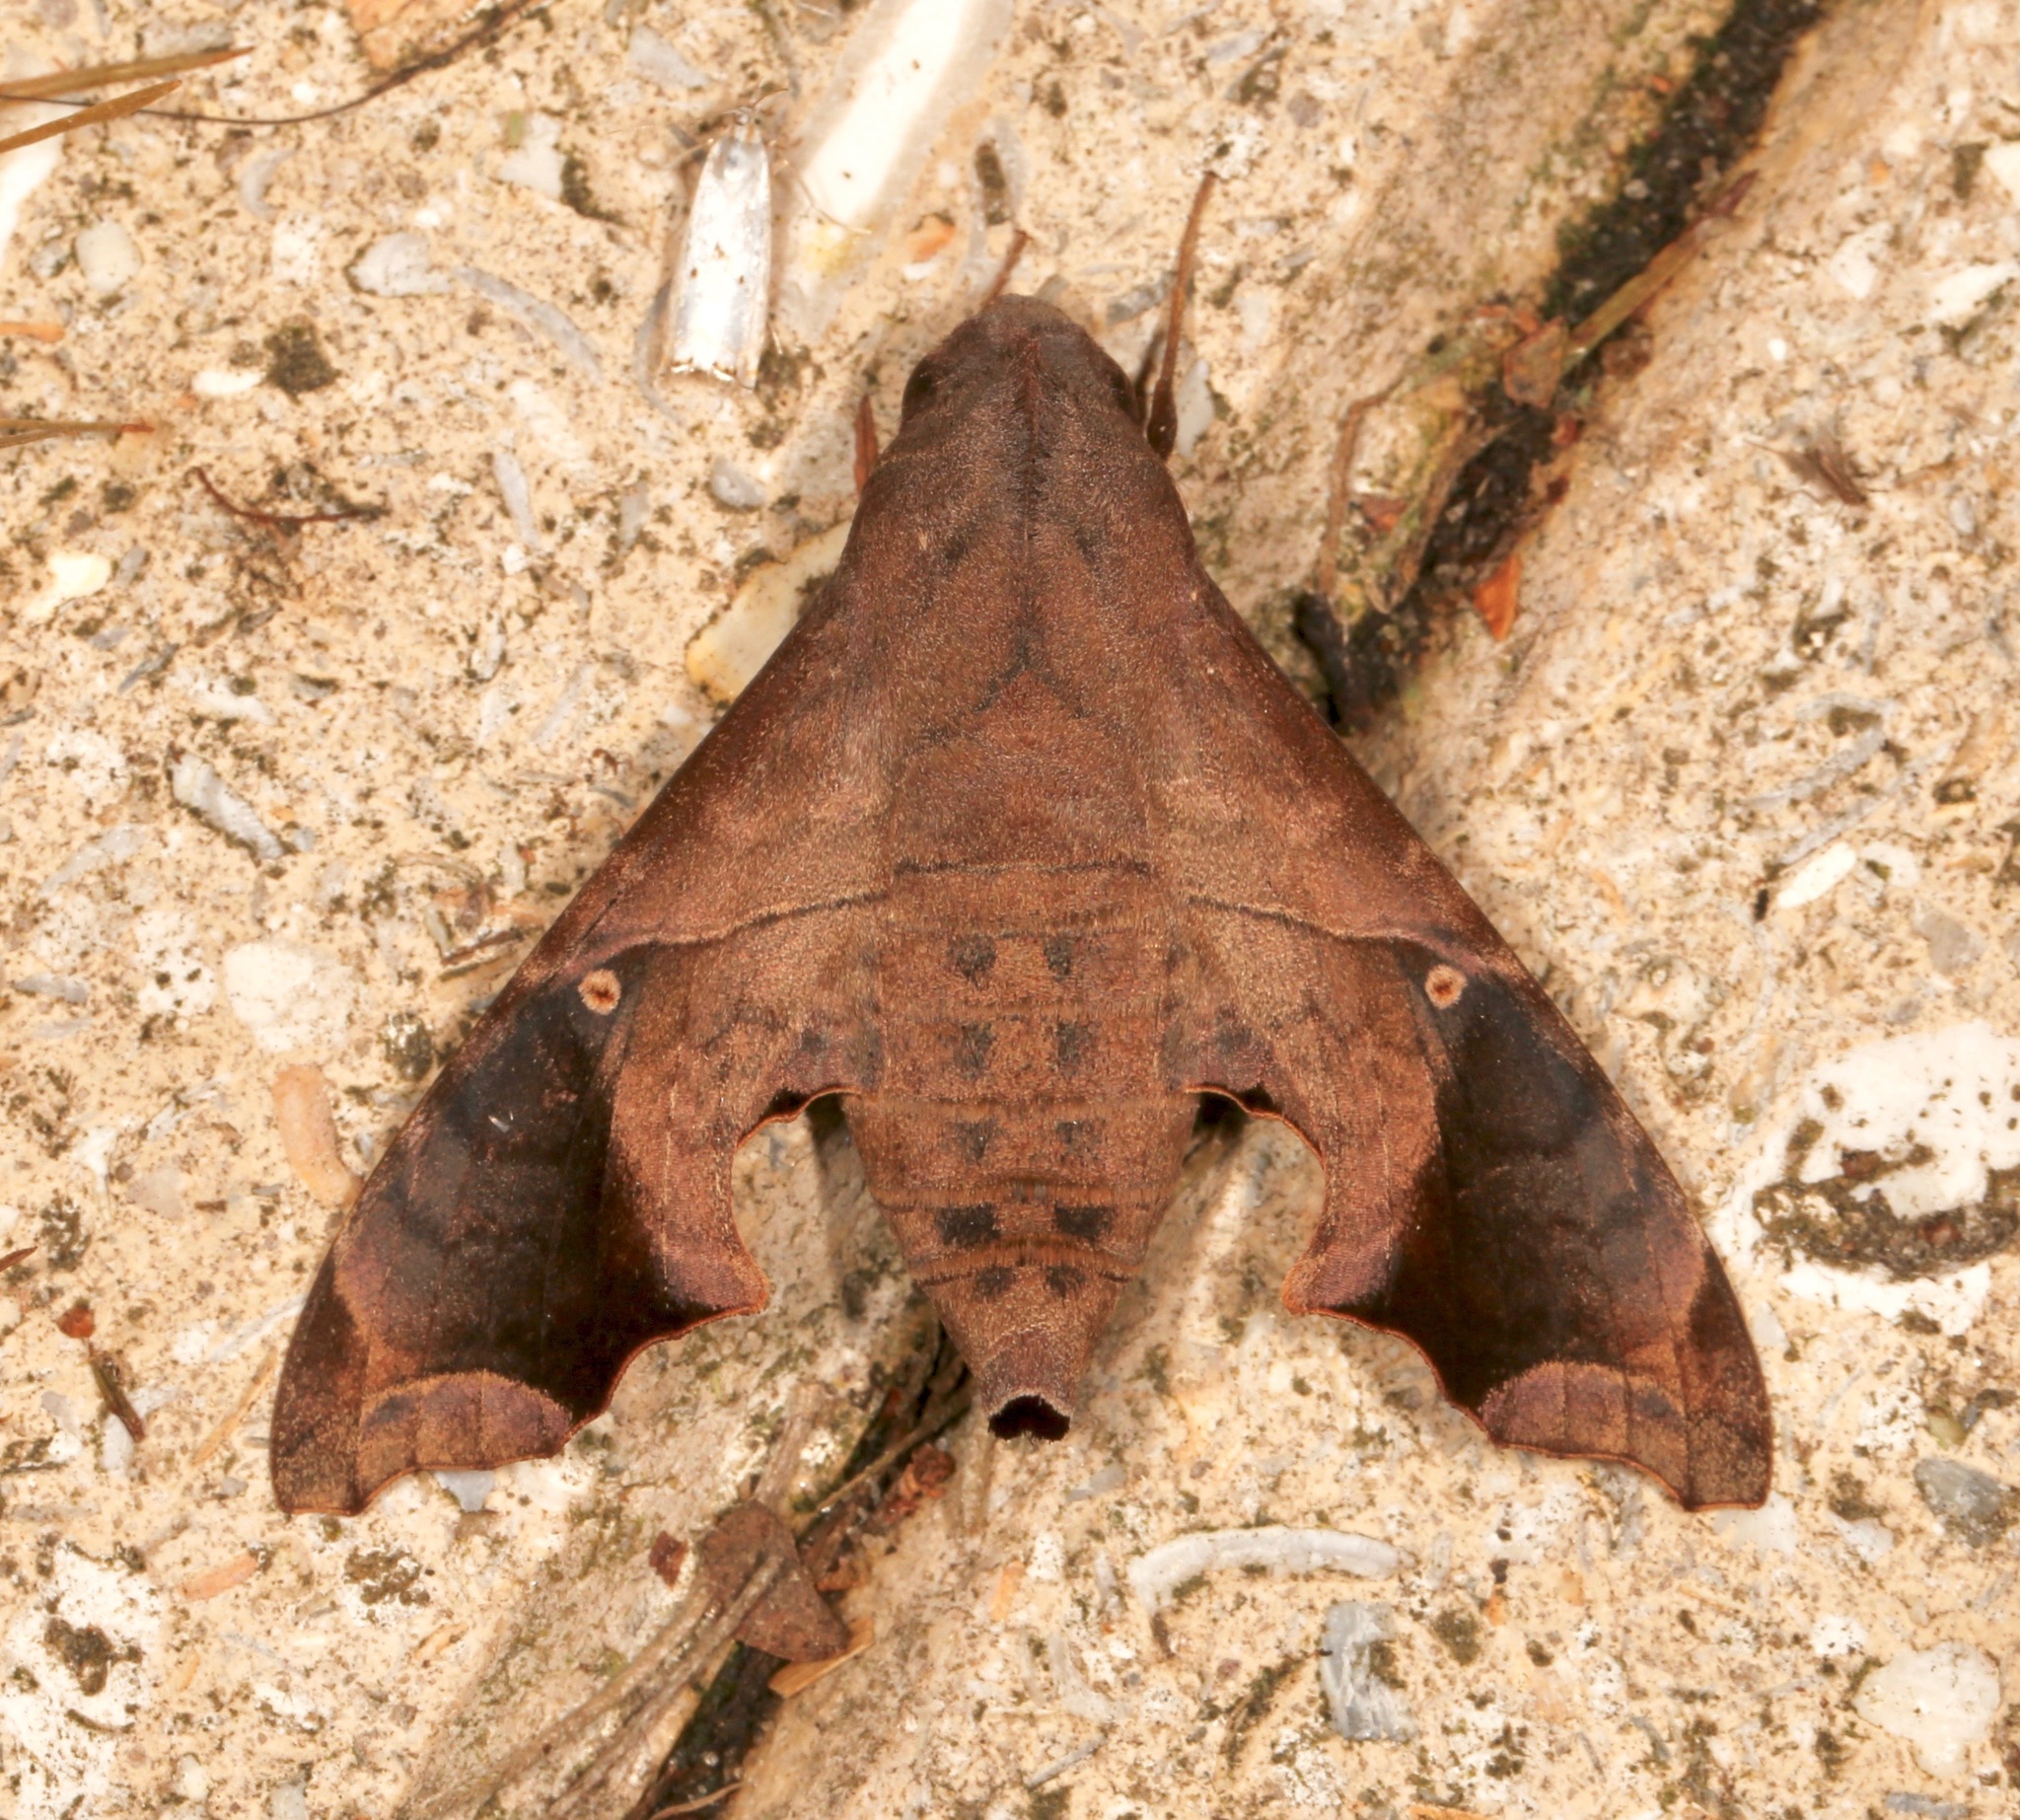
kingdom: Animalia
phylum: Arthropoda
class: Insecta
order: Lepidoptera
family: Sphingidae
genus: Enyo
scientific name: Enyo lugubris
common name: Mournful sphinx
